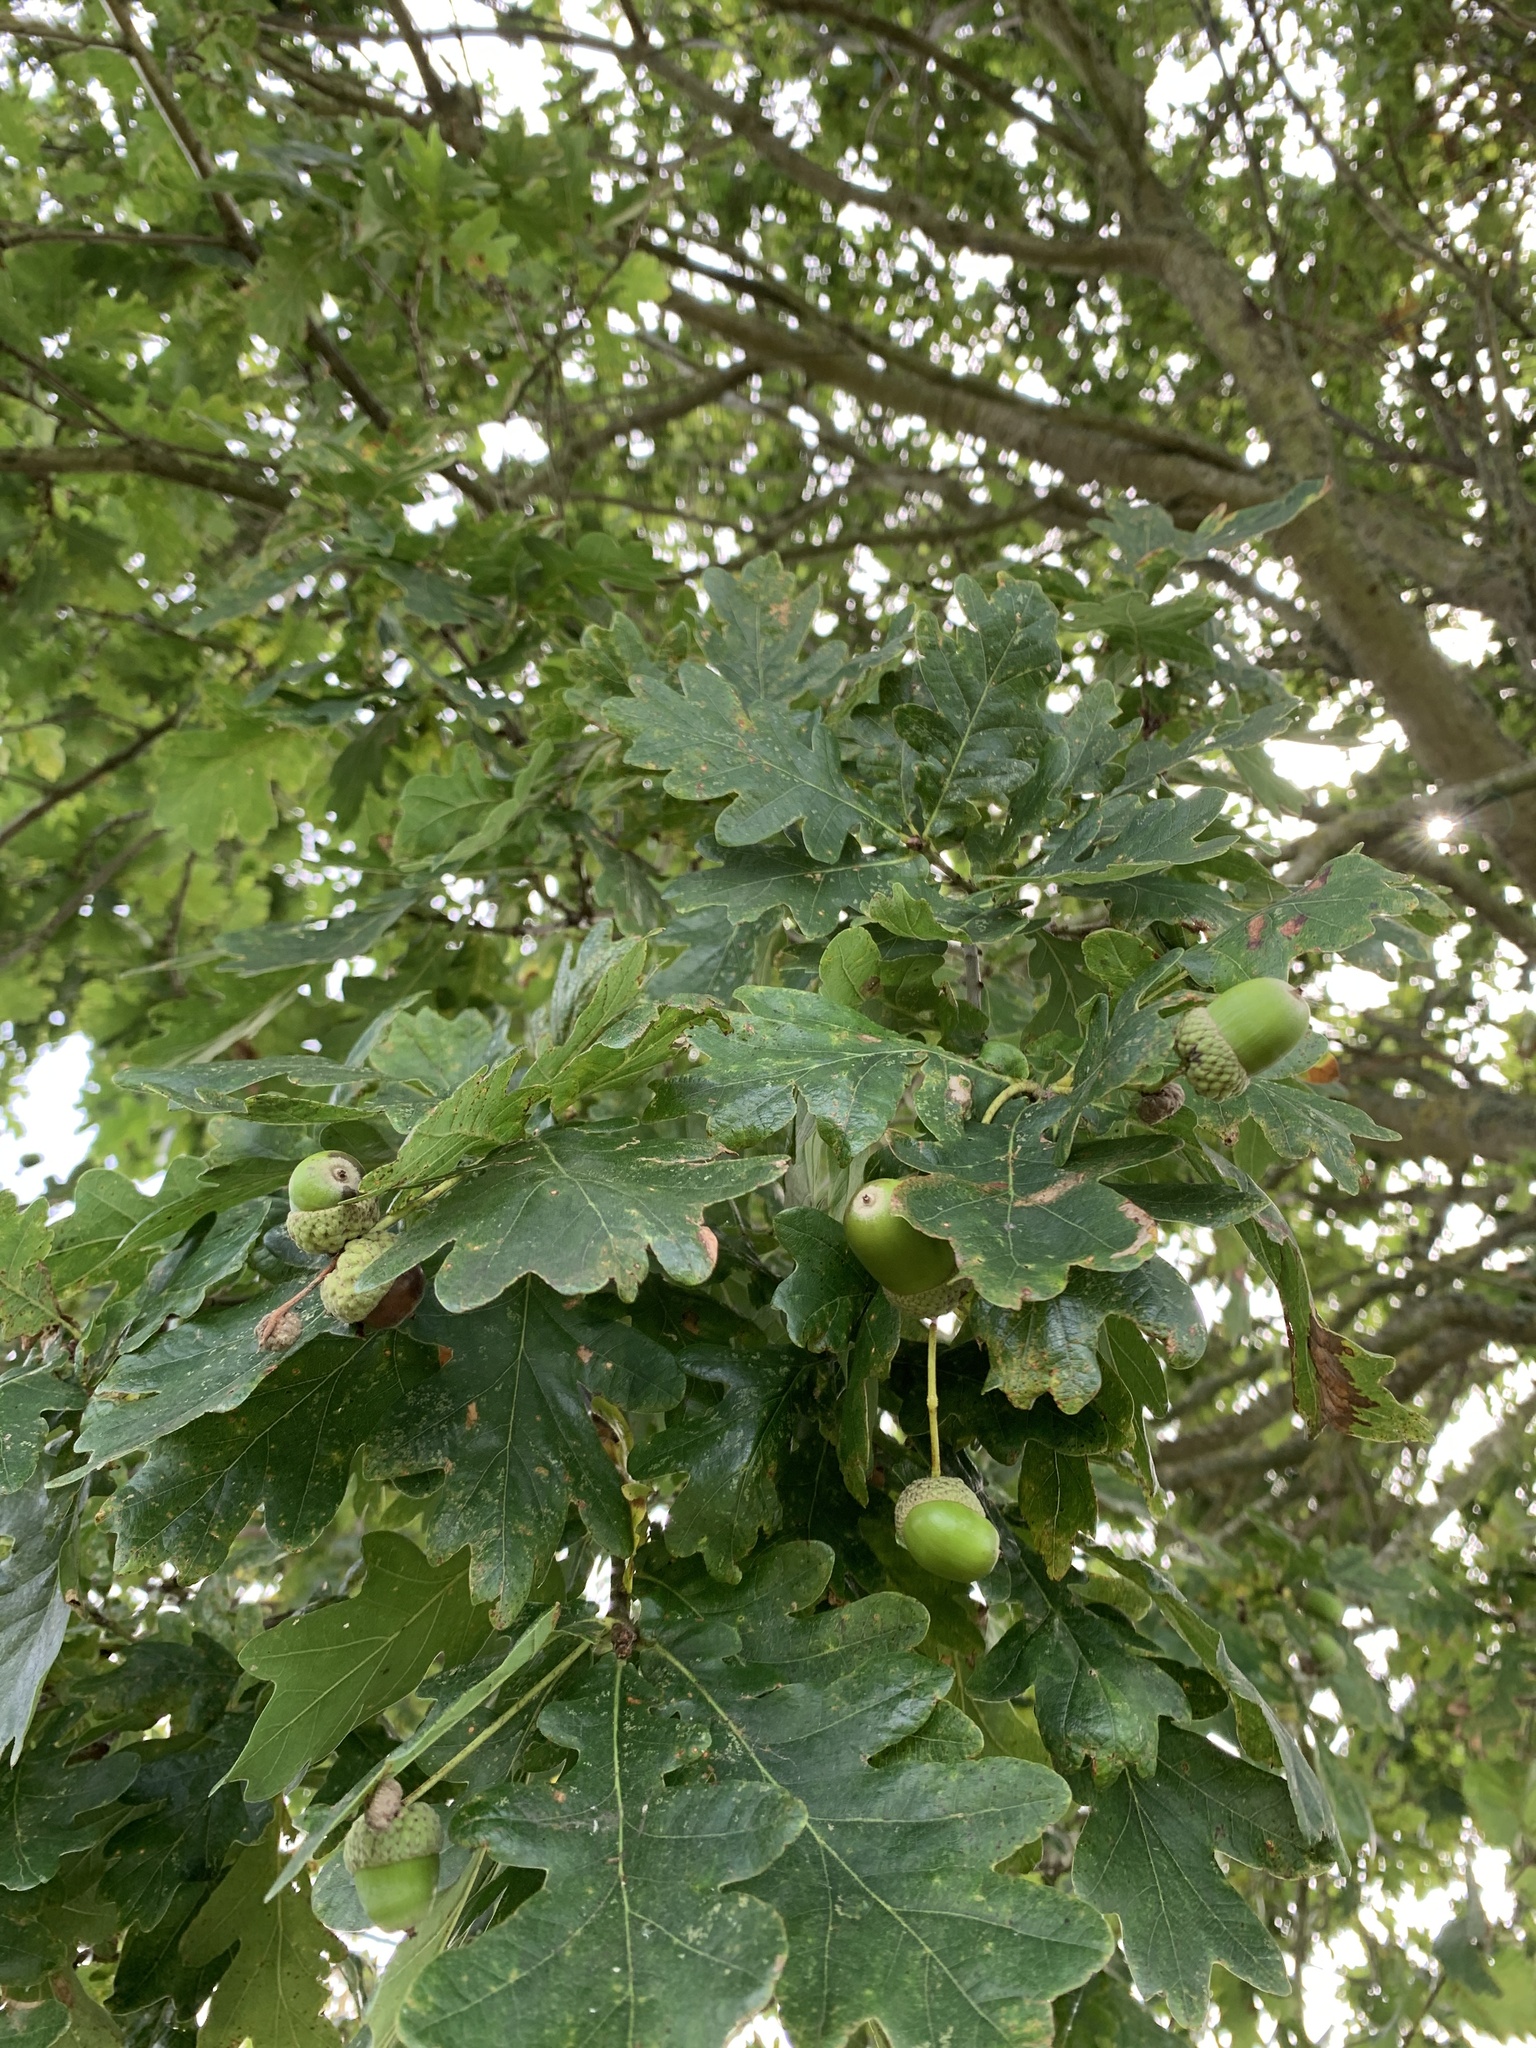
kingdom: Plantae
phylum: Tracheophyta
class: Magnoliopsida
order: Fagales
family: Fagaceae
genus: Quercus
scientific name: Quercus robur
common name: Pedunculate oak
